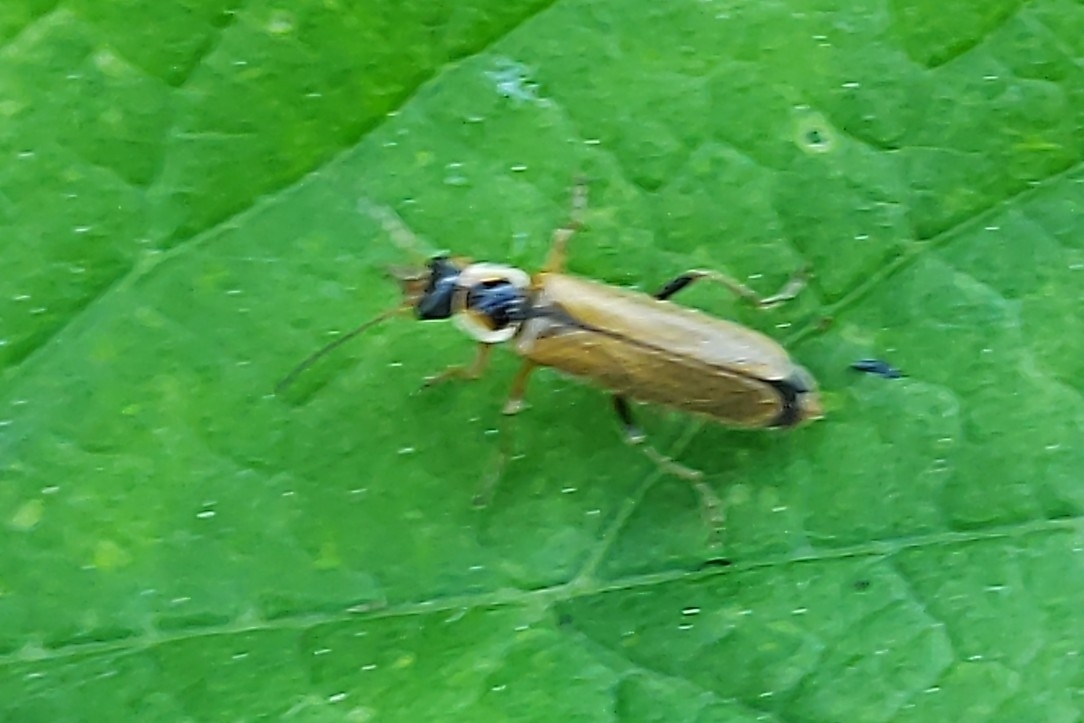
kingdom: Animalia
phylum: Arthropoda
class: Insecta
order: Coleoptera
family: Cantharidae
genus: Cantharis
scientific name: Cantharis decipiens
